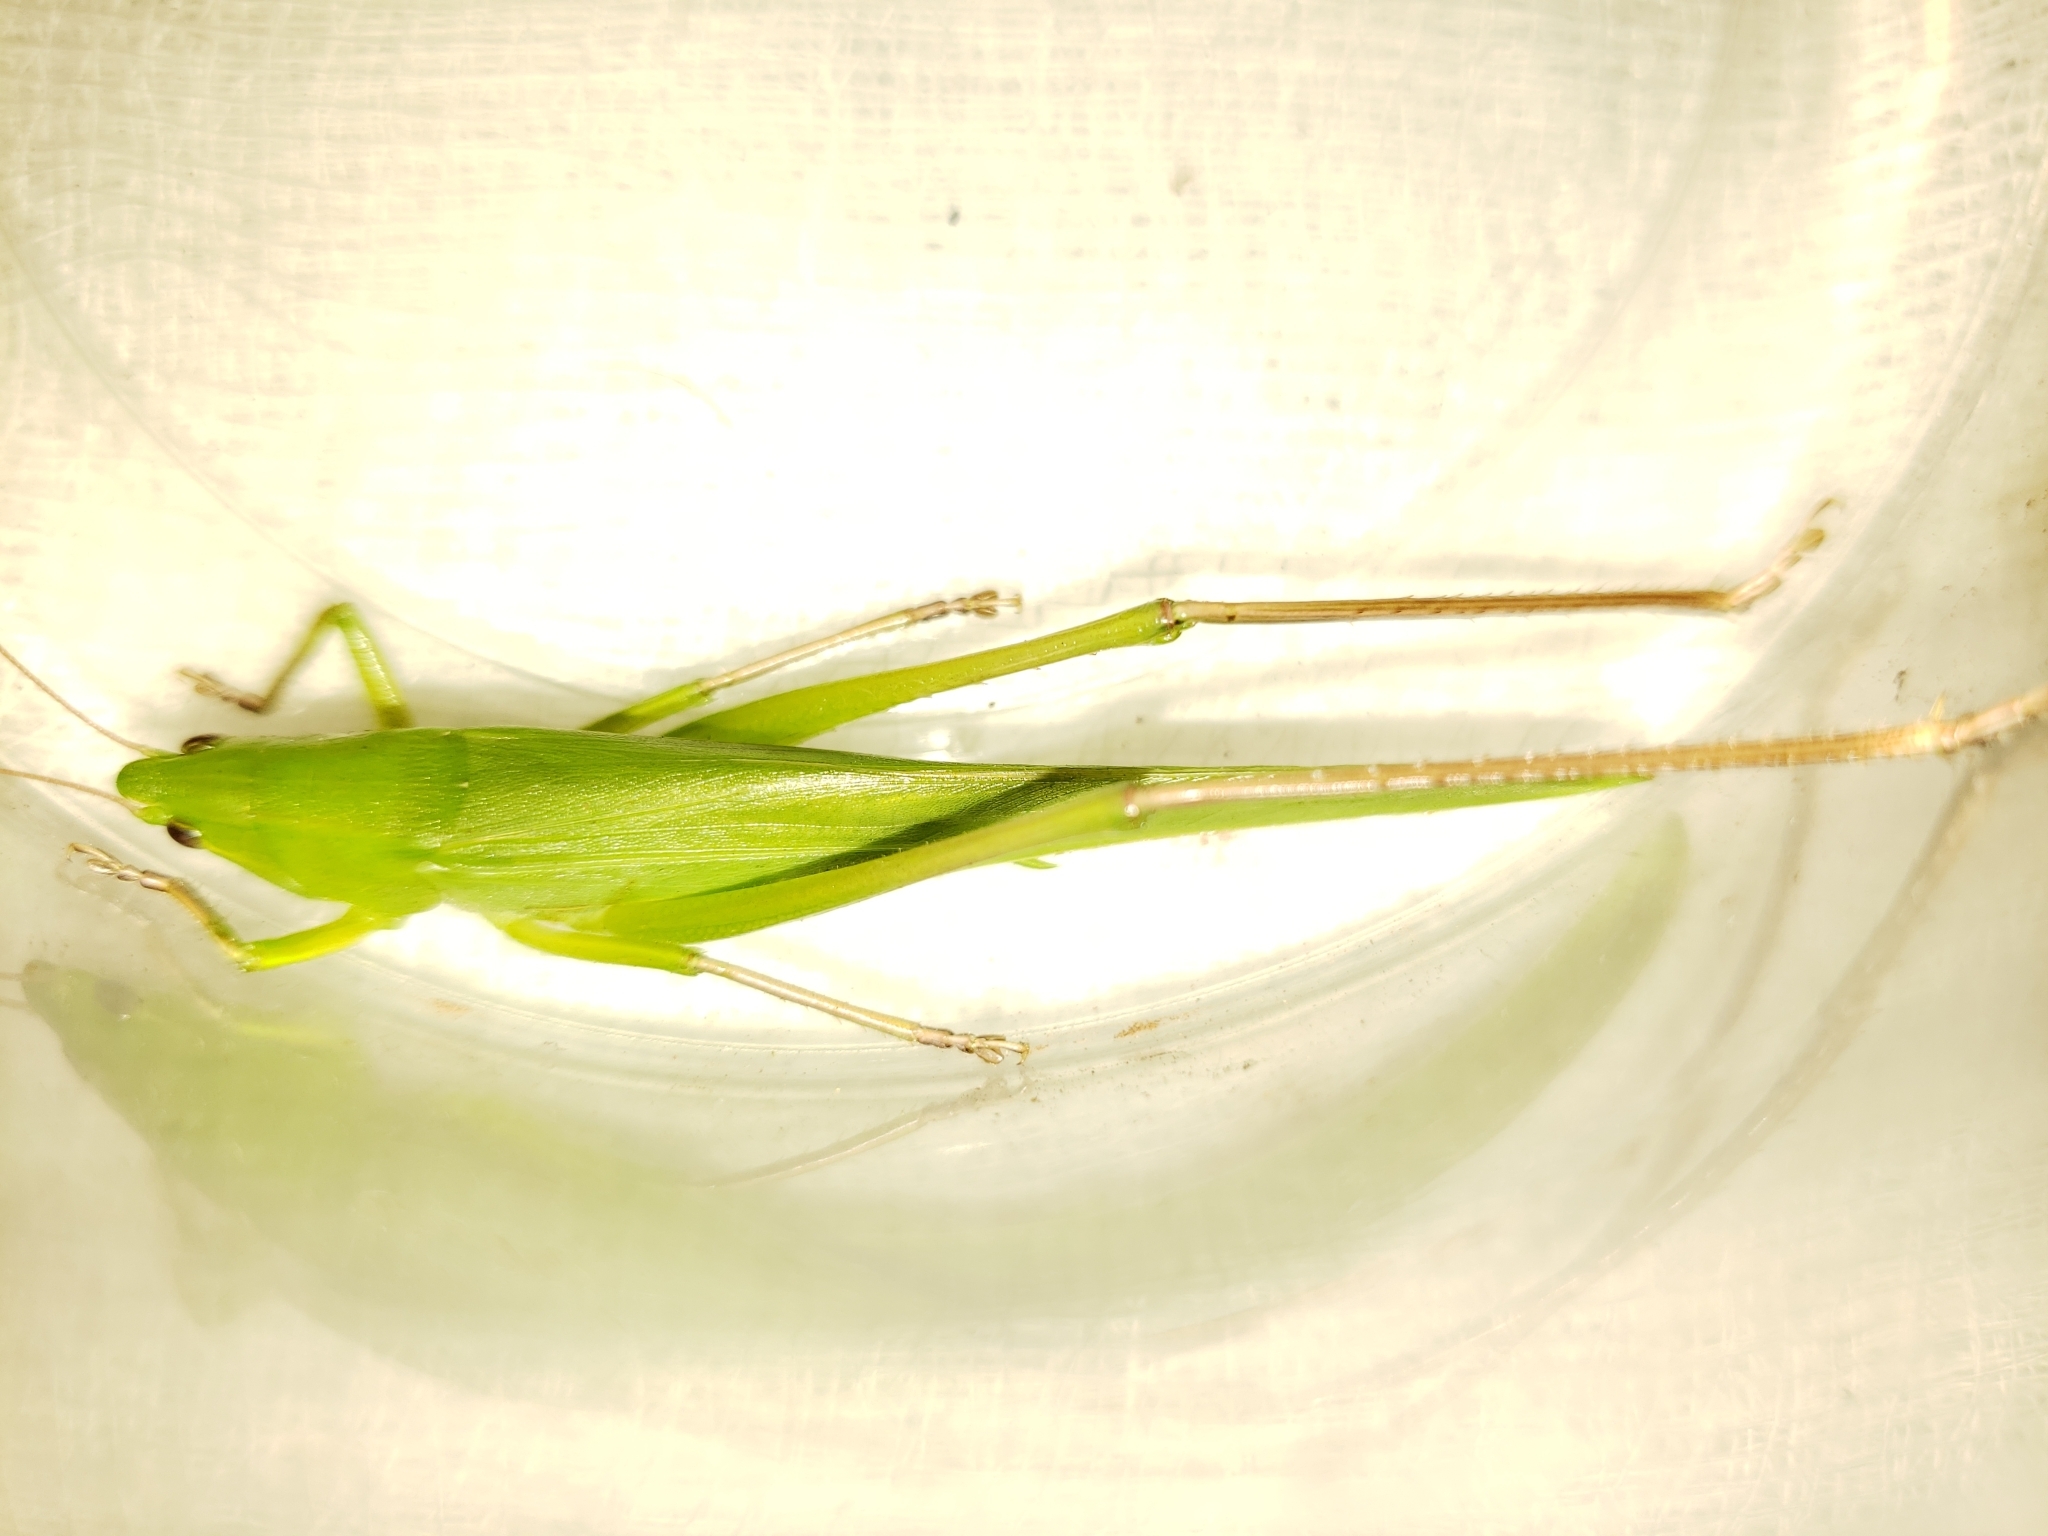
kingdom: Animalia
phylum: Arthropoda
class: Insecta
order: Orthoptera
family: Tettigoniidae
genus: Neoconocephalus
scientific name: Neoconocephalus triops
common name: Broad-tipped conehead
